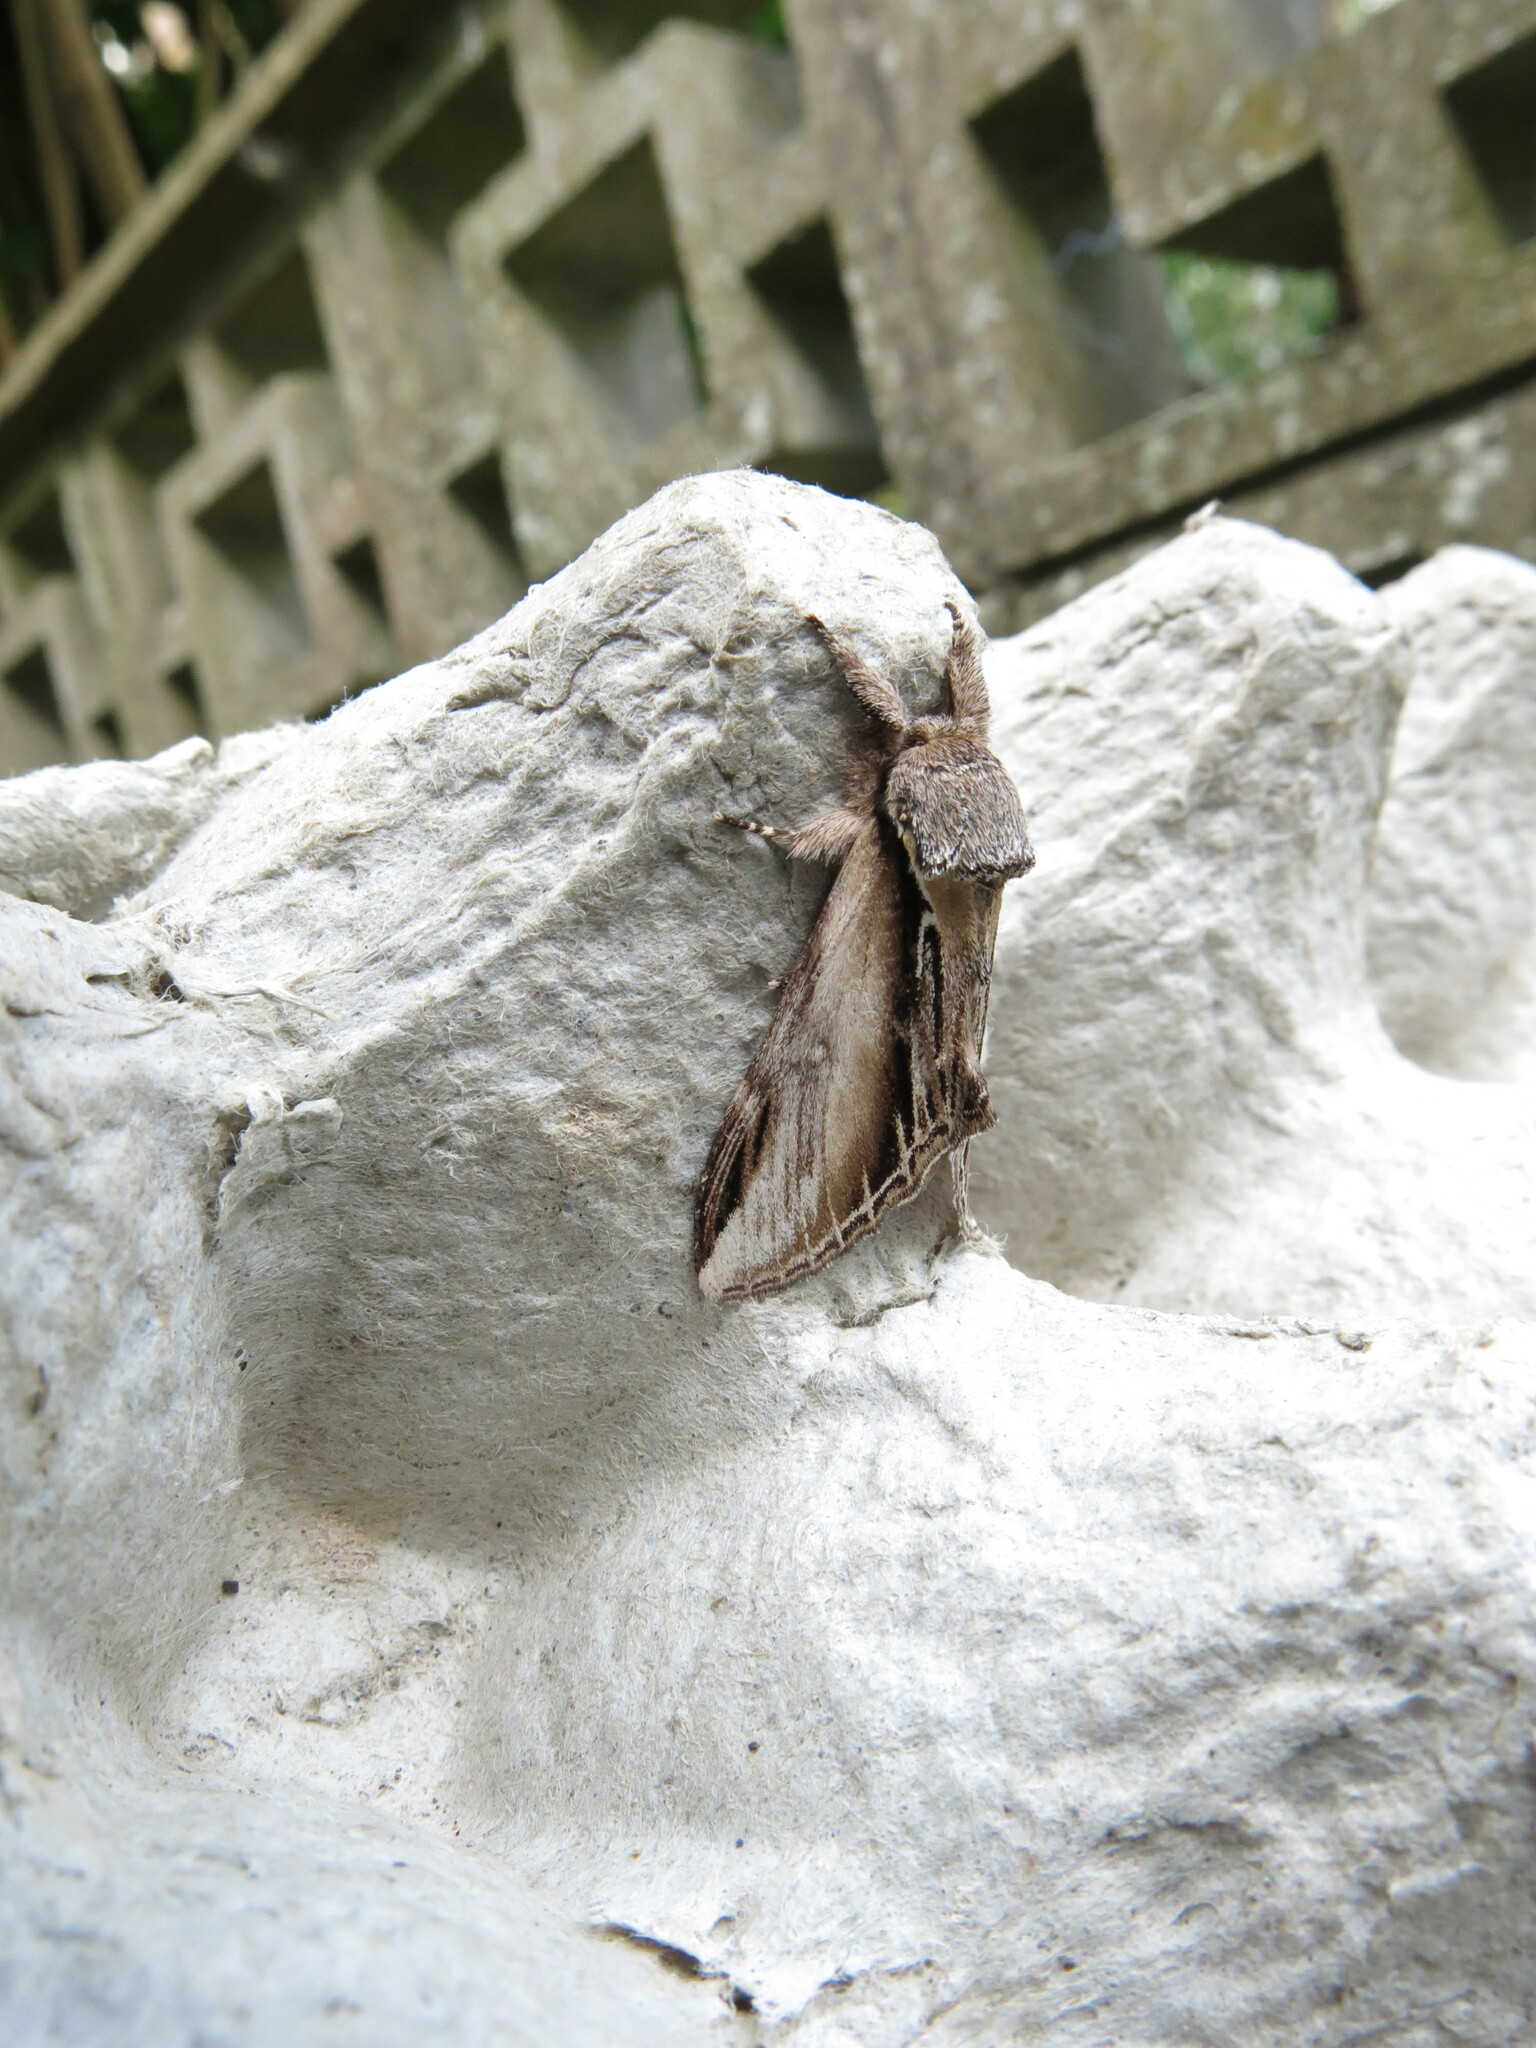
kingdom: Animalia
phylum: Arthropoda
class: Insecta
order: Lepidoptera
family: Notodontidae
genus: Pheosia
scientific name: Pheosia tremula
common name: Swallow prominent
